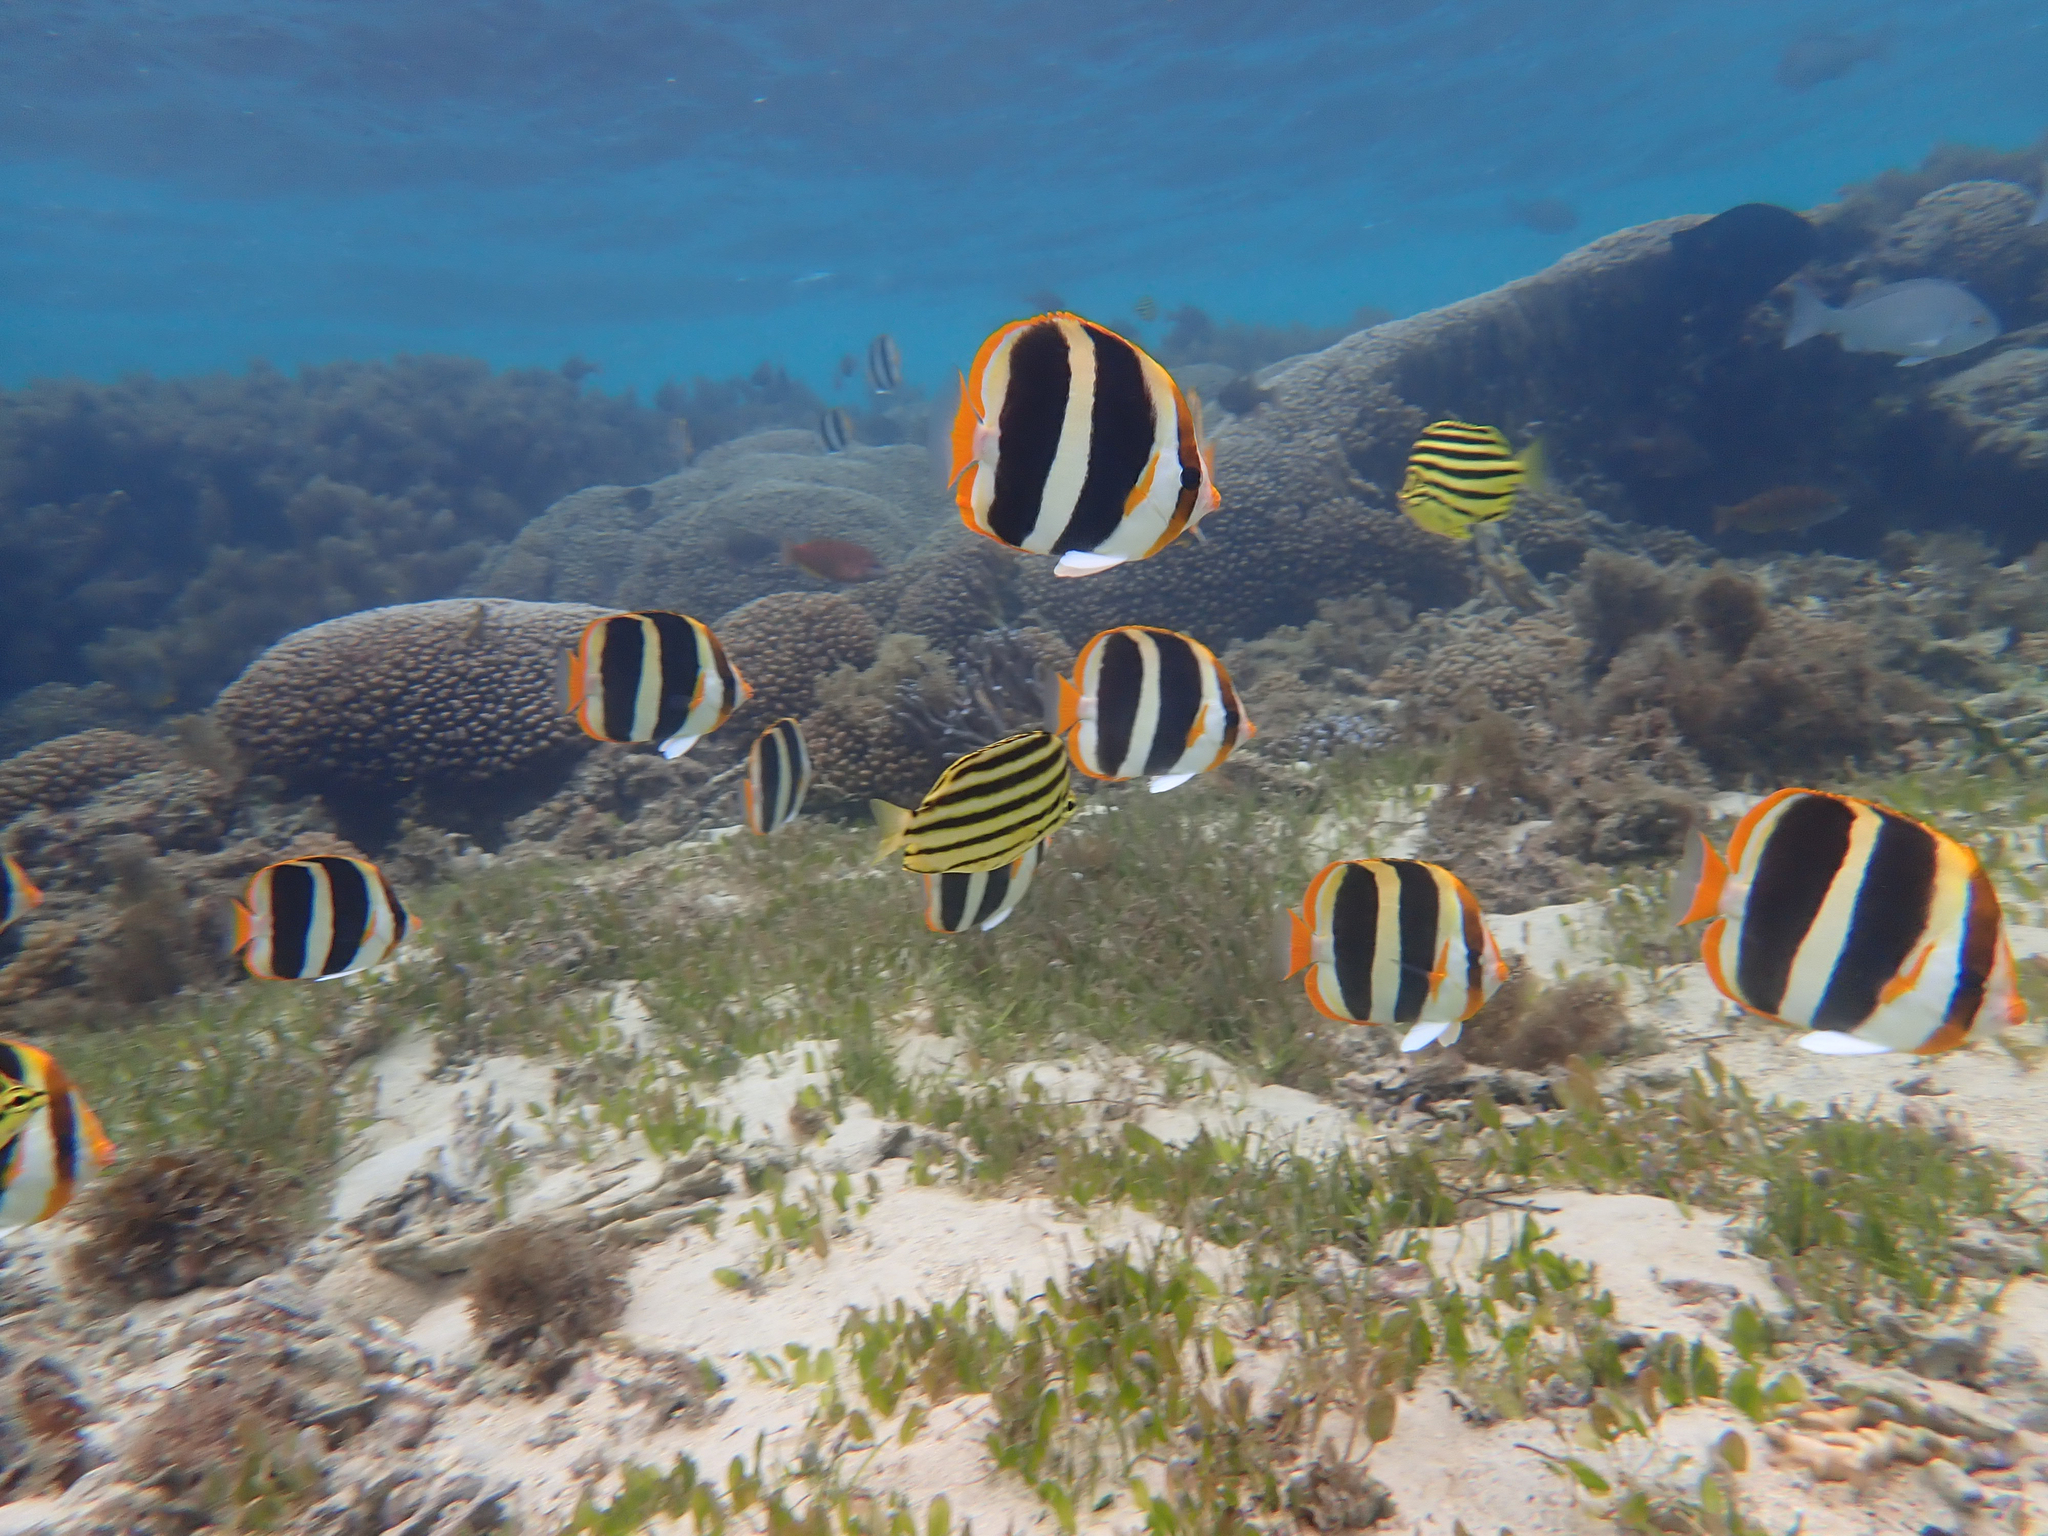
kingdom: Animalia
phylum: Chordata
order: Perciformes
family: Chaetodontidae
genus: Chaetodon
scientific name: Chaetodon tricinctus
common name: Three-striped butterflyfish
